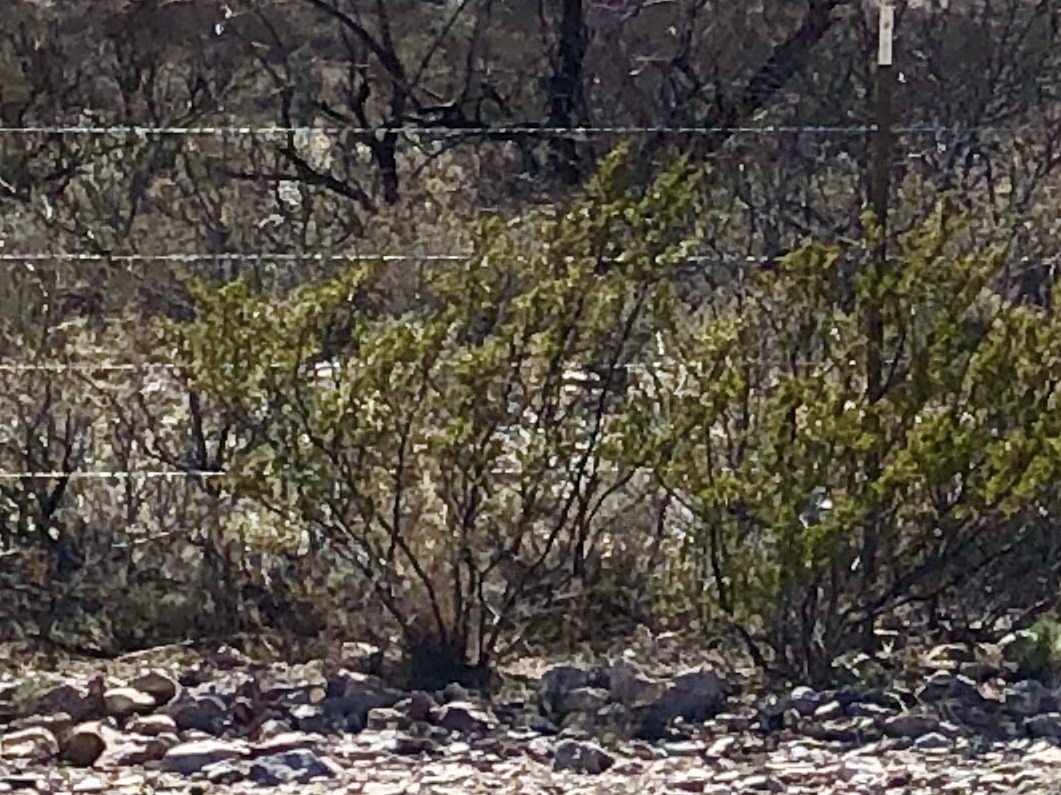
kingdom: Plantae
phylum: Tracheophyta
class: Magnoliopsida
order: Zygophyllales
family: Zygophyllaceae
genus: Larrea
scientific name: Larrea tridentata
